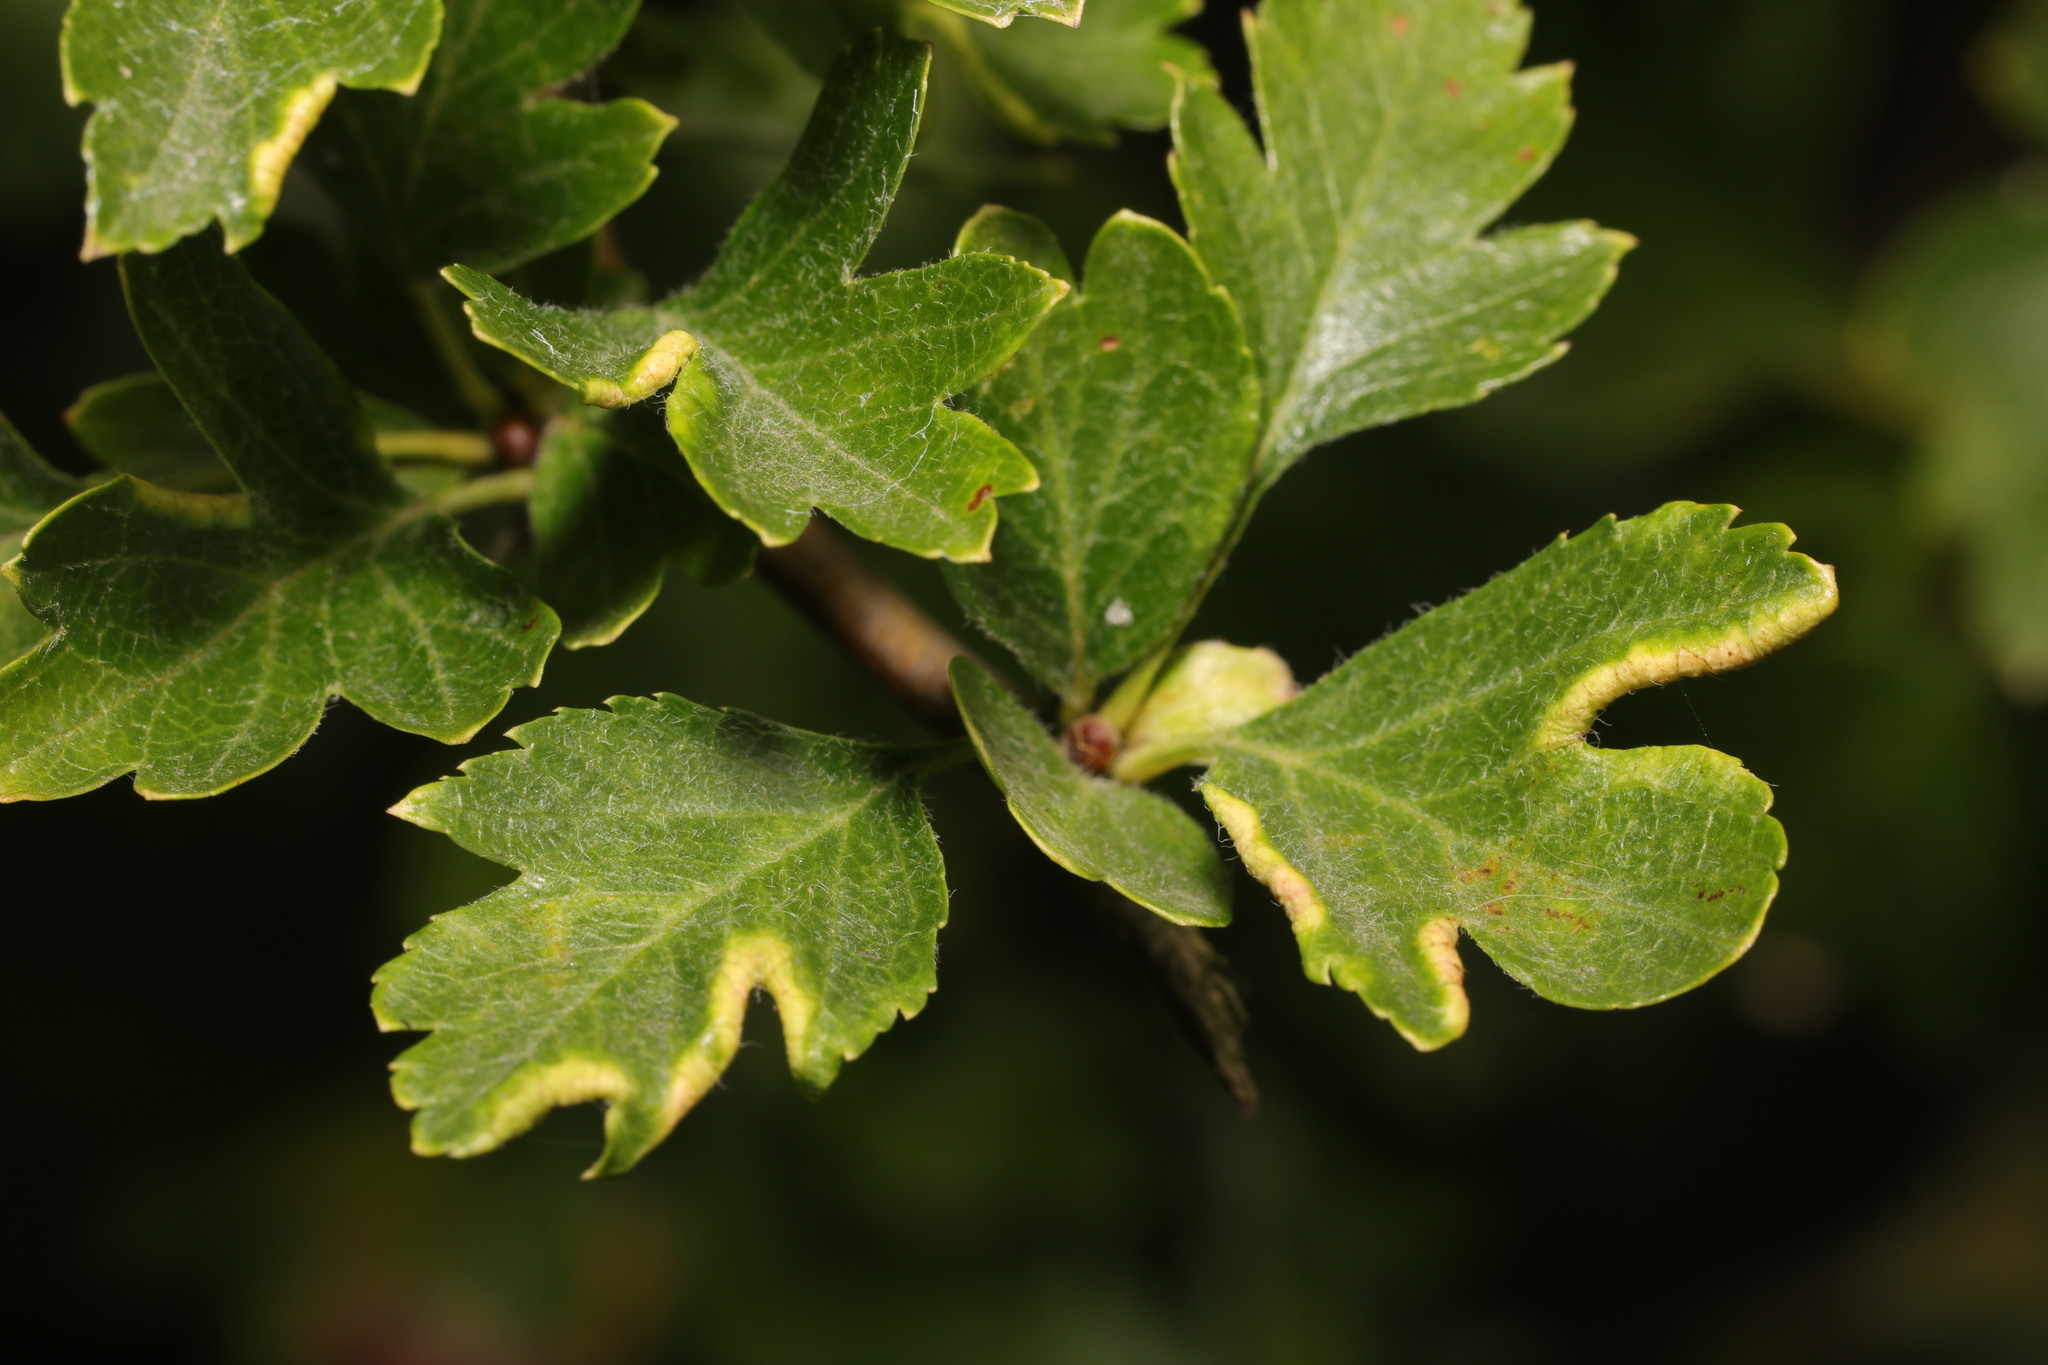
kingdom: Animalia
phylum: Arthropoda
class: Arachnida
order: Trombidiformes
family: Eriophyidae
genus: Phyllocoptes
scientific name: Phyllocoptes goniothorax
